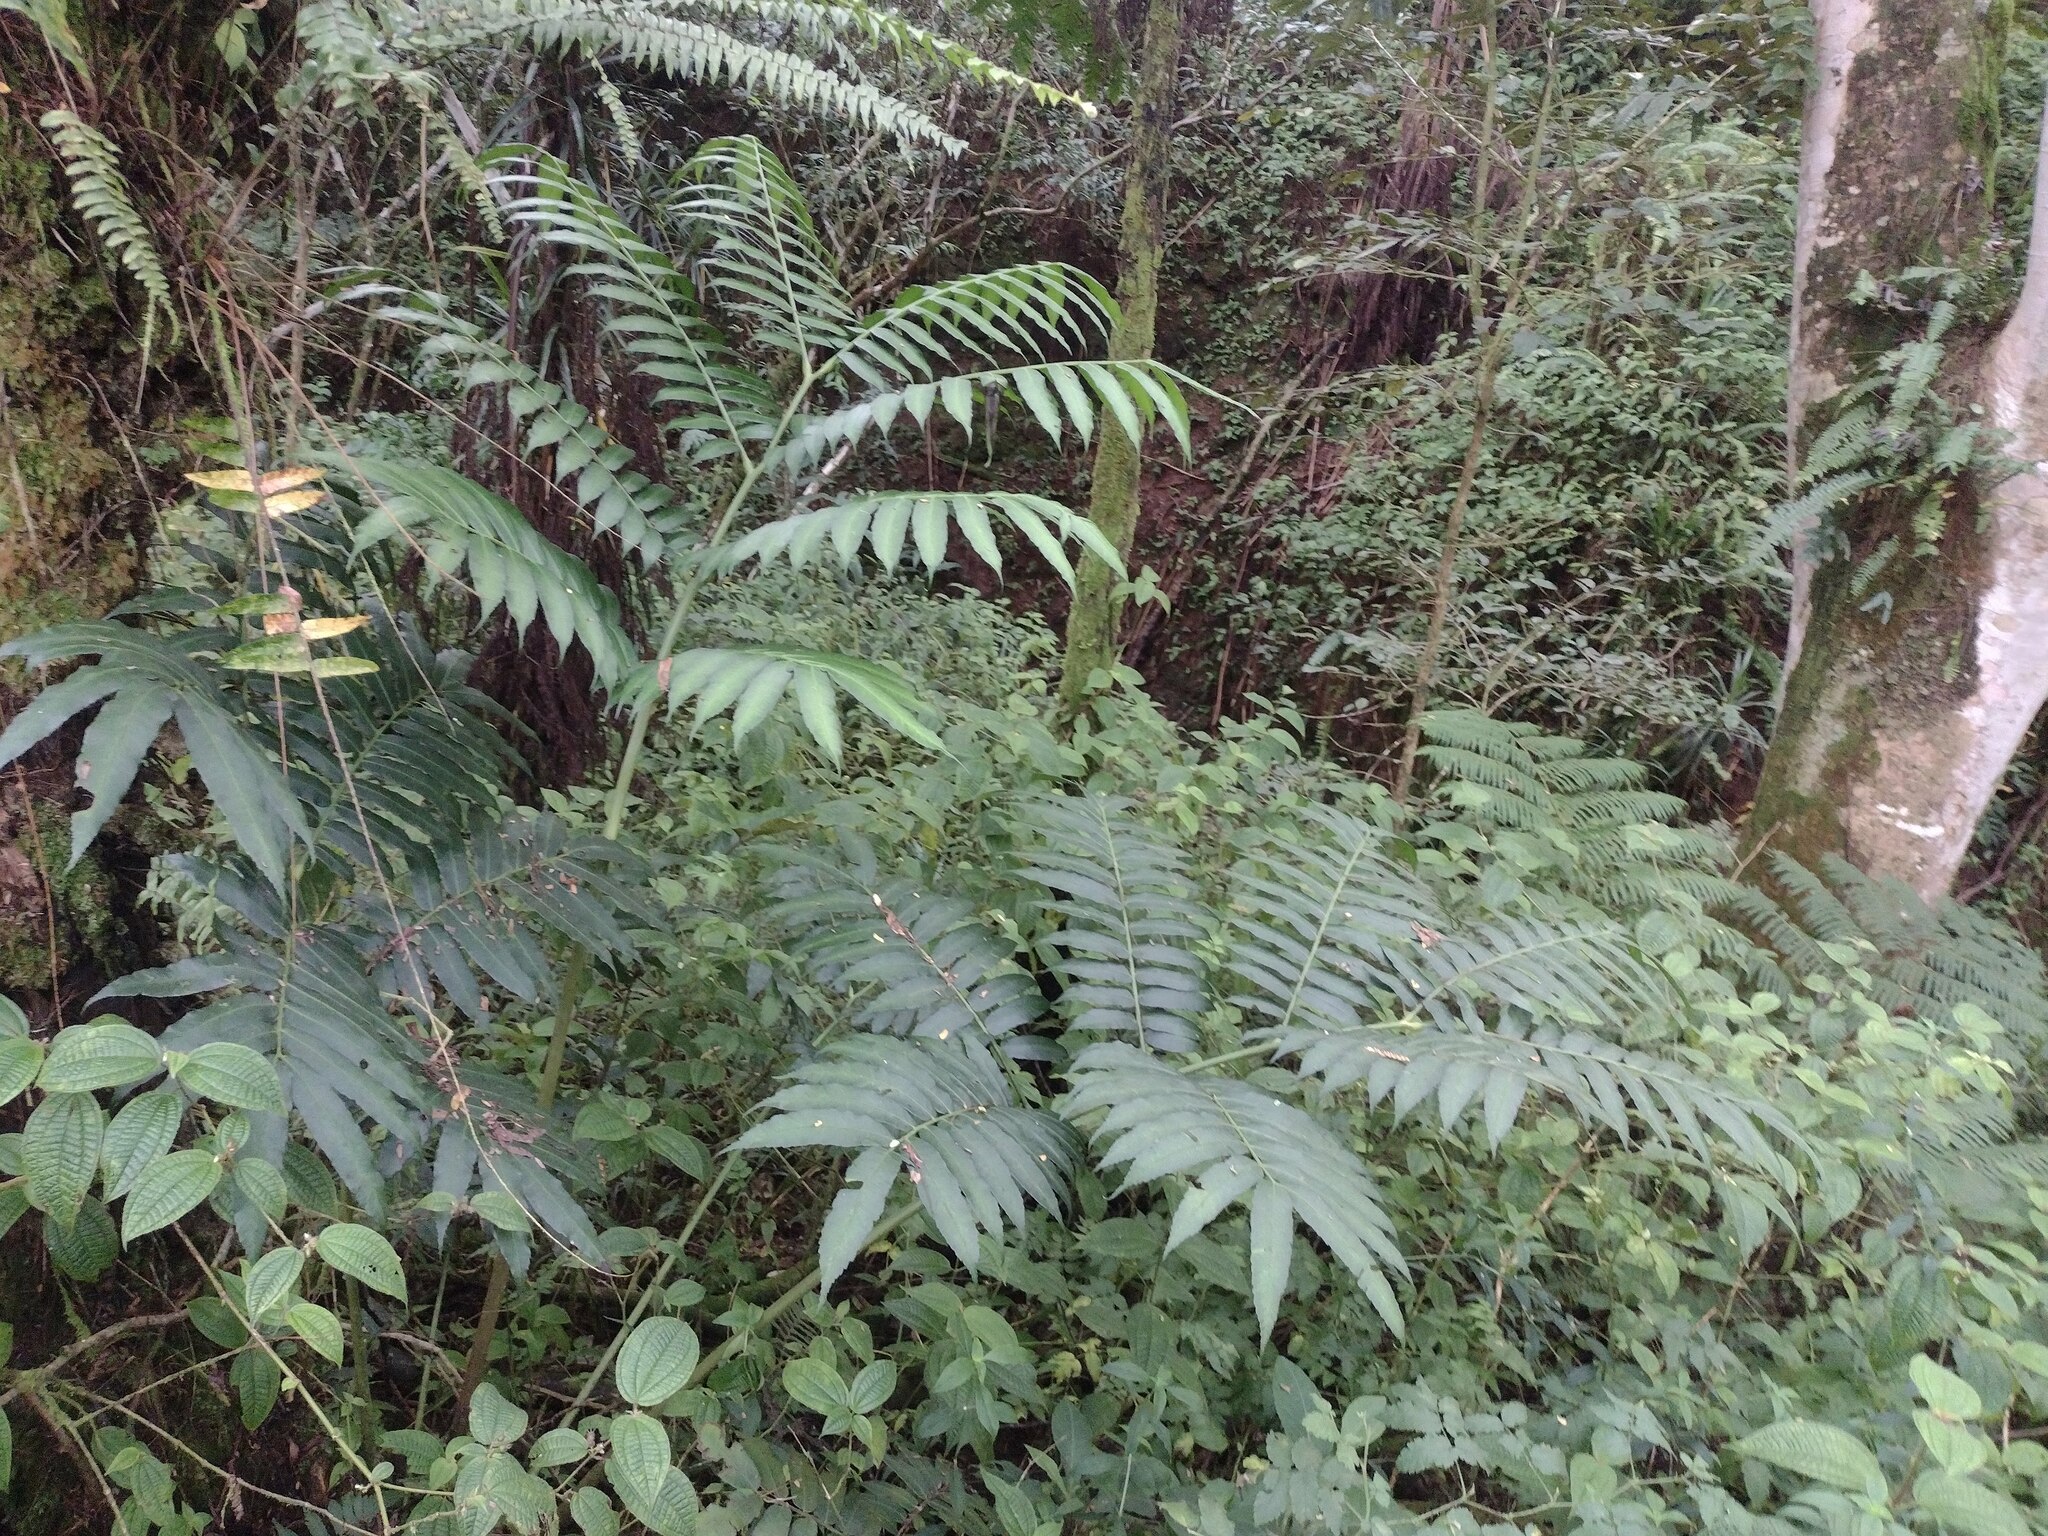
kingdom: Plantae
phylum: Tracheophyta
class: Polypodiopsida
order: Marattiales
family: Marattiaceae
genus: Angiopteris
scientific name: Angiopteris evecta
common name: Mule's-foot fern
